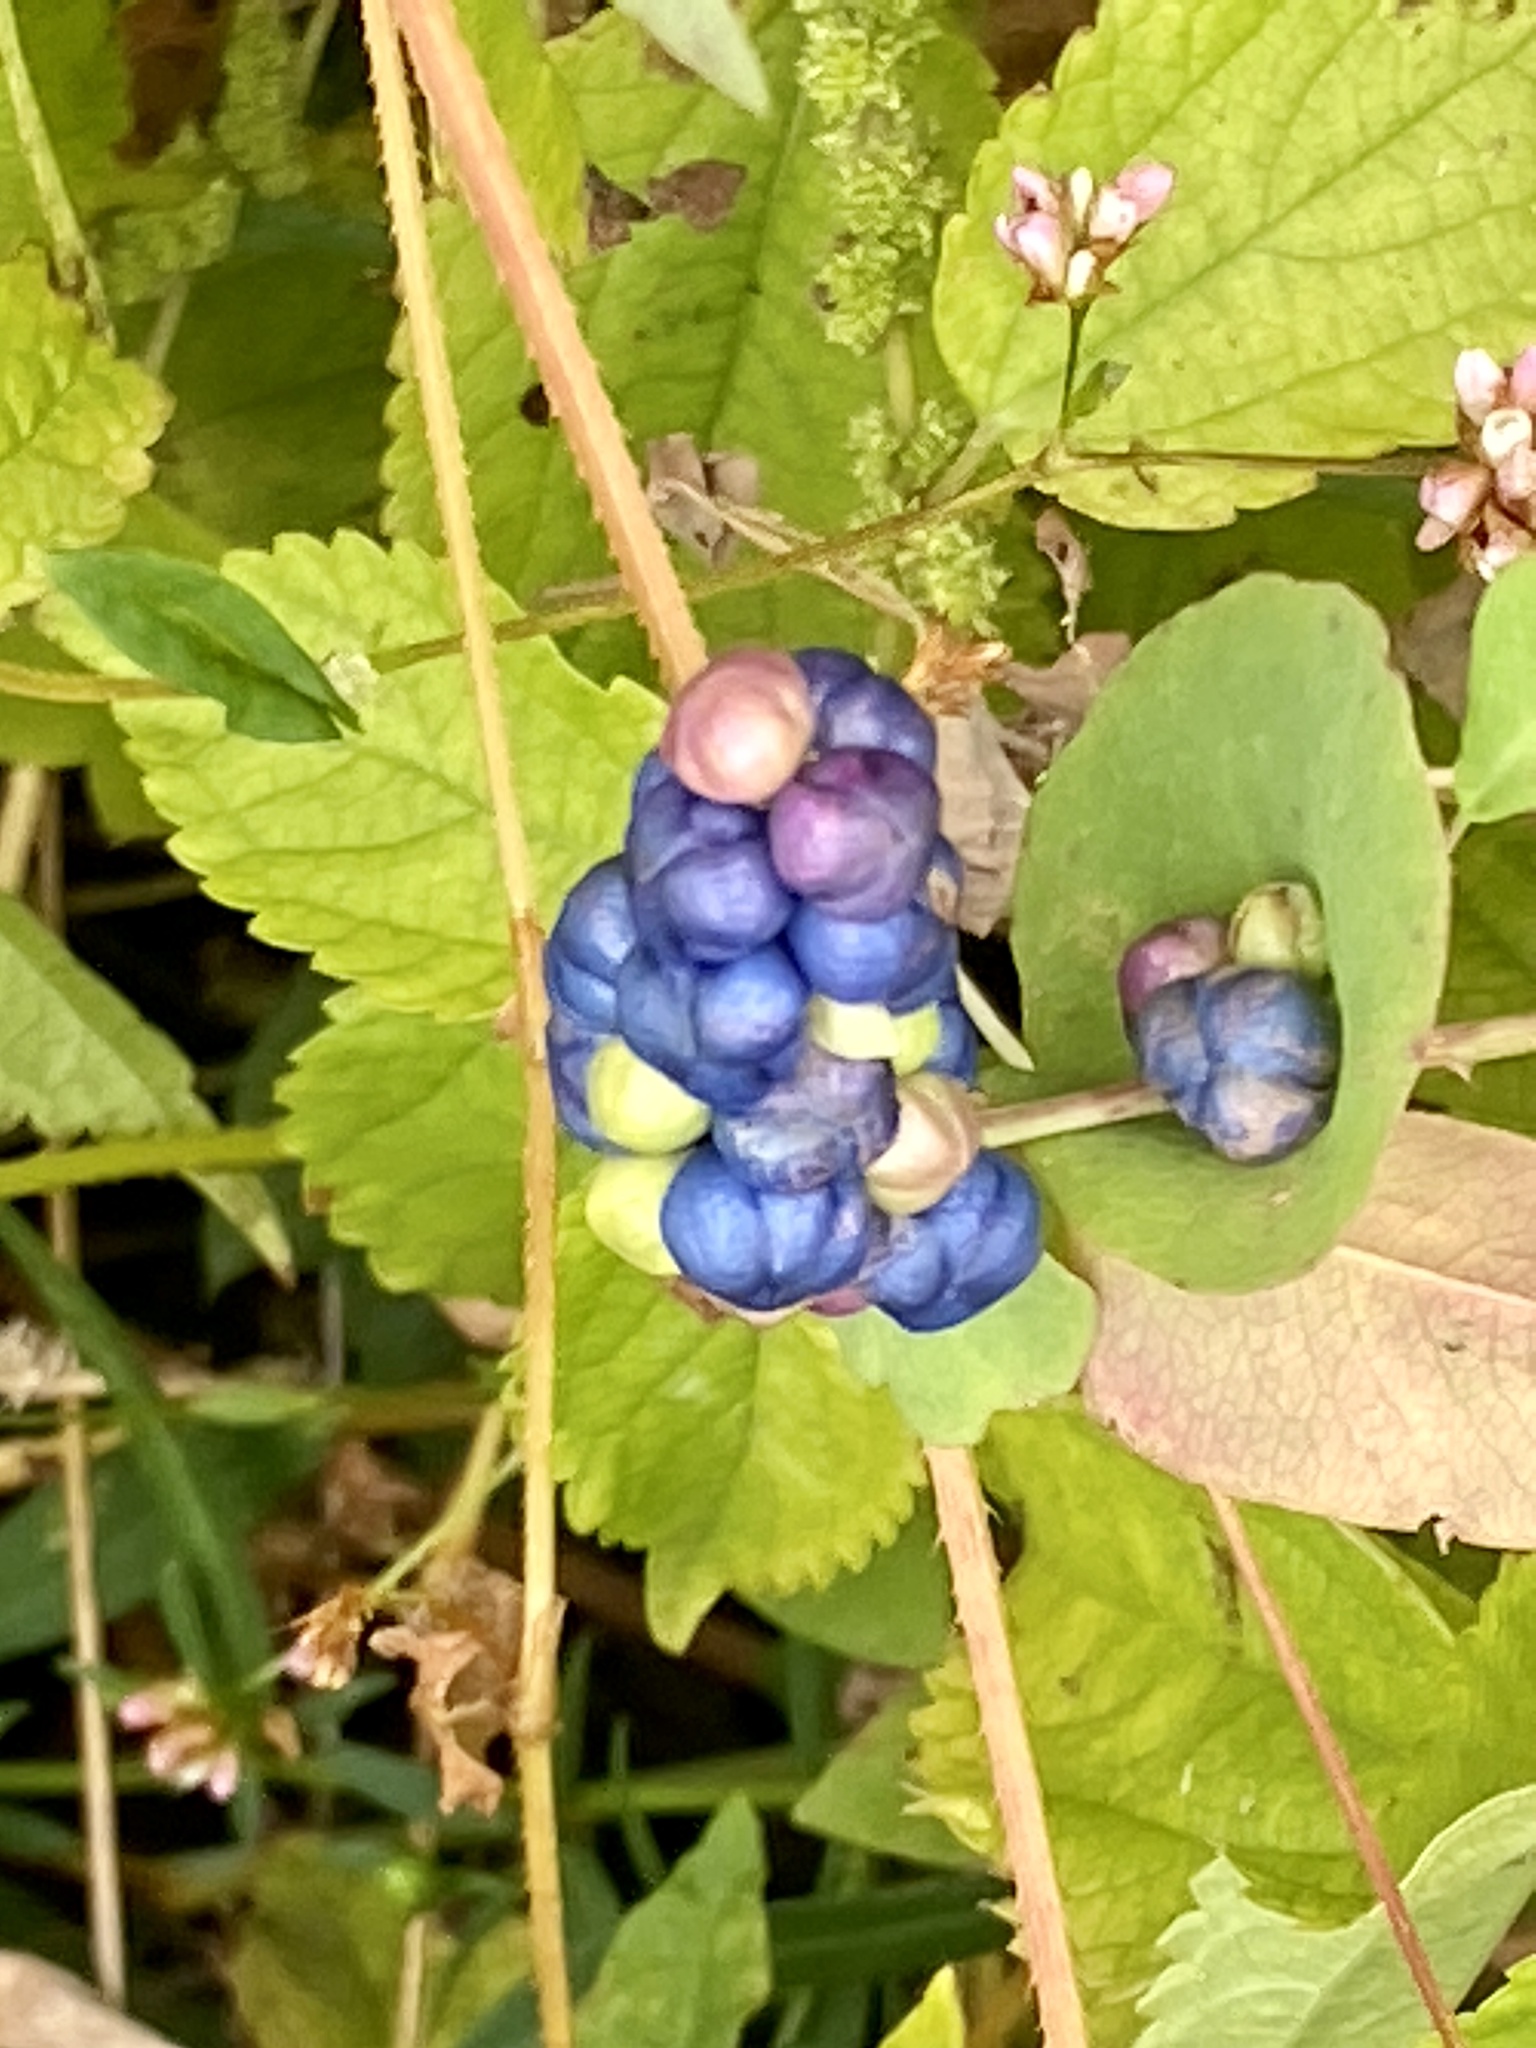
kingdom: Plantae
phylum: Tracheophyta
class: Magnoliopsida
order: Caryophyllales
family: Polygonaceae
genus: Persicaria
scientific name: Persicaria perfoliata
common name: Asiatic tearthumb
